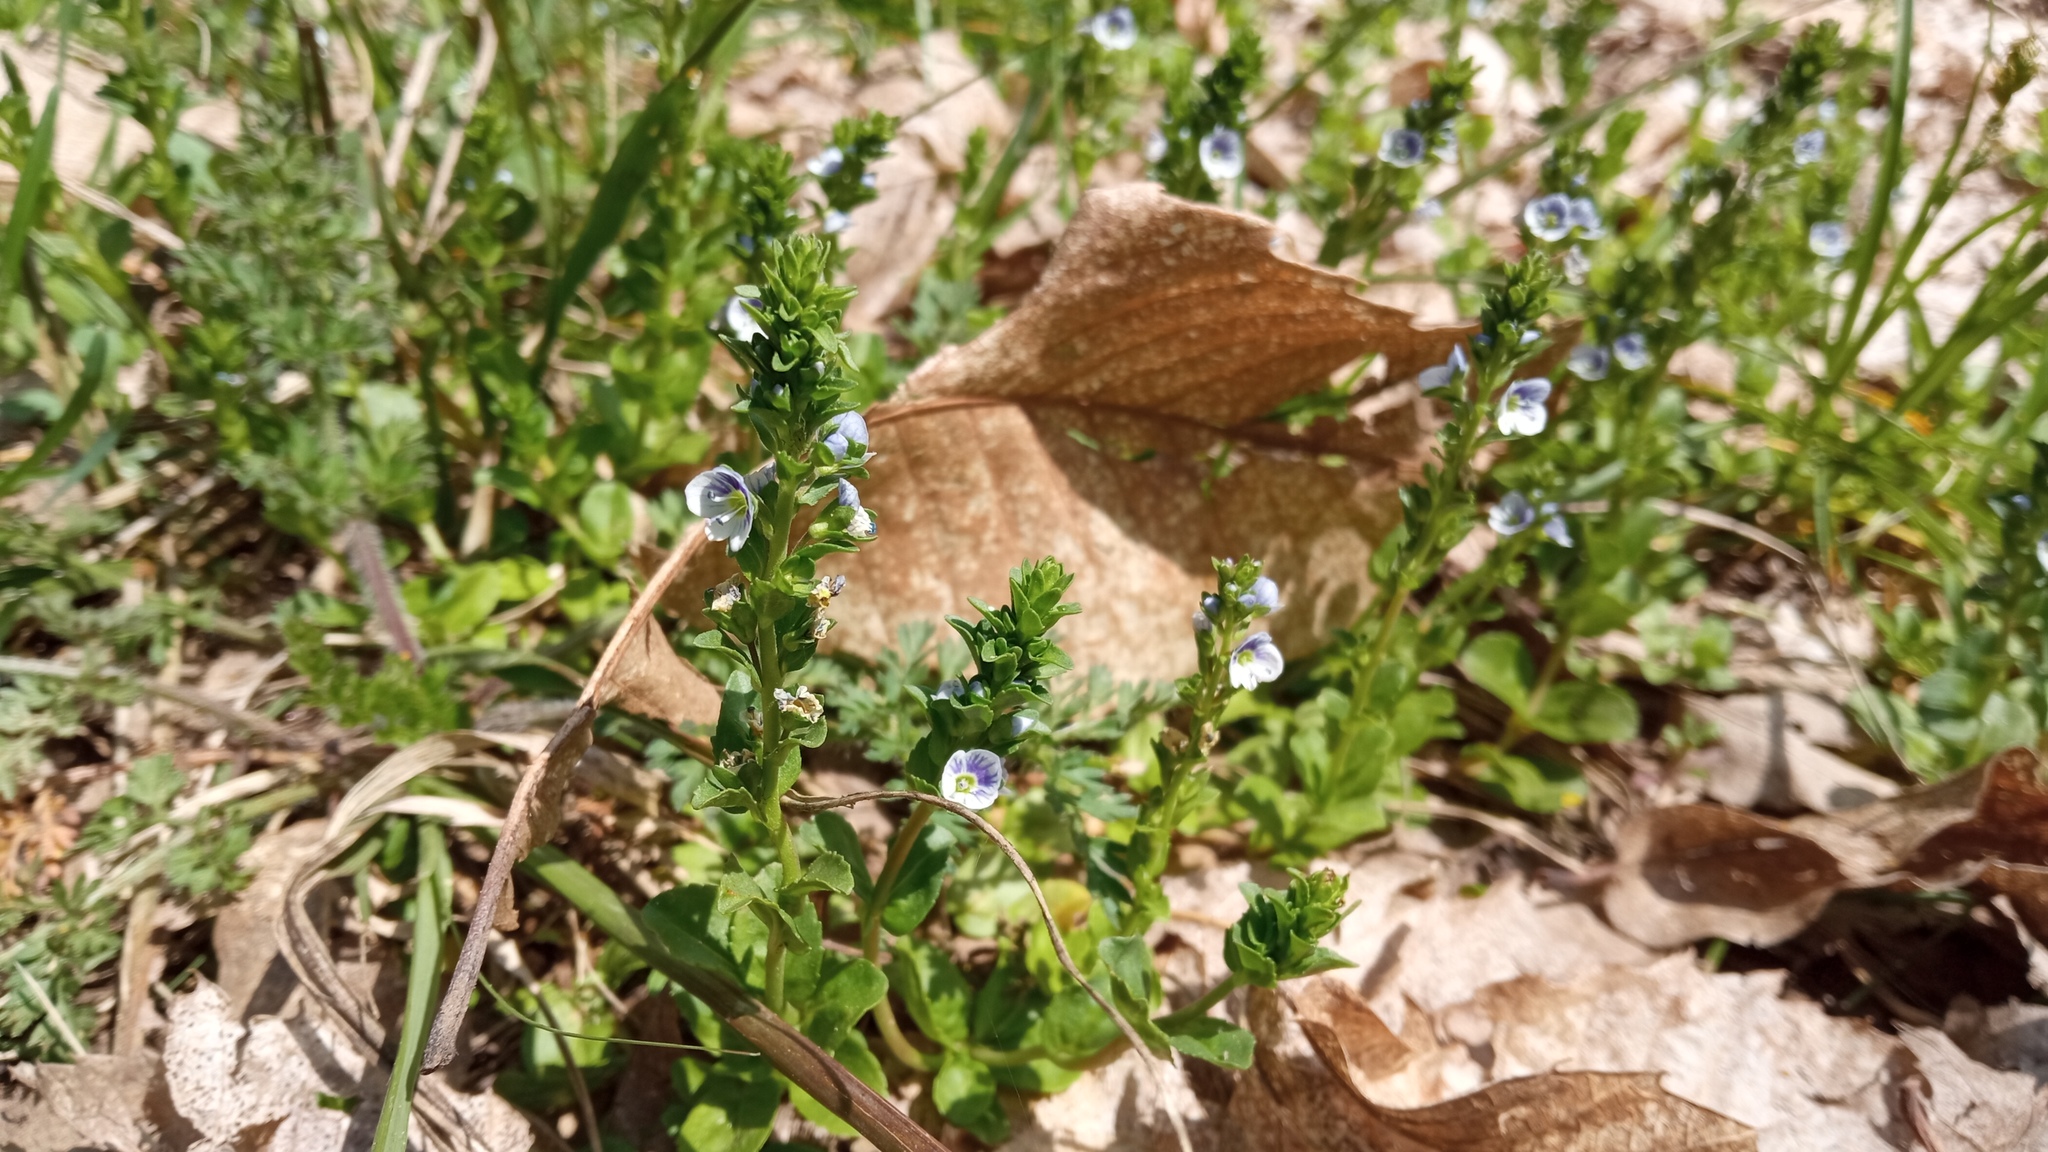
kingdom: Plantae
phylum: Tracheophyta
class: Magnoliopsida
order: Lamiales
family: Plantaginaceae
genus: Veronica
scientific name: Veronica serpyllifolia
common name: Thyme-leaved speedwell
